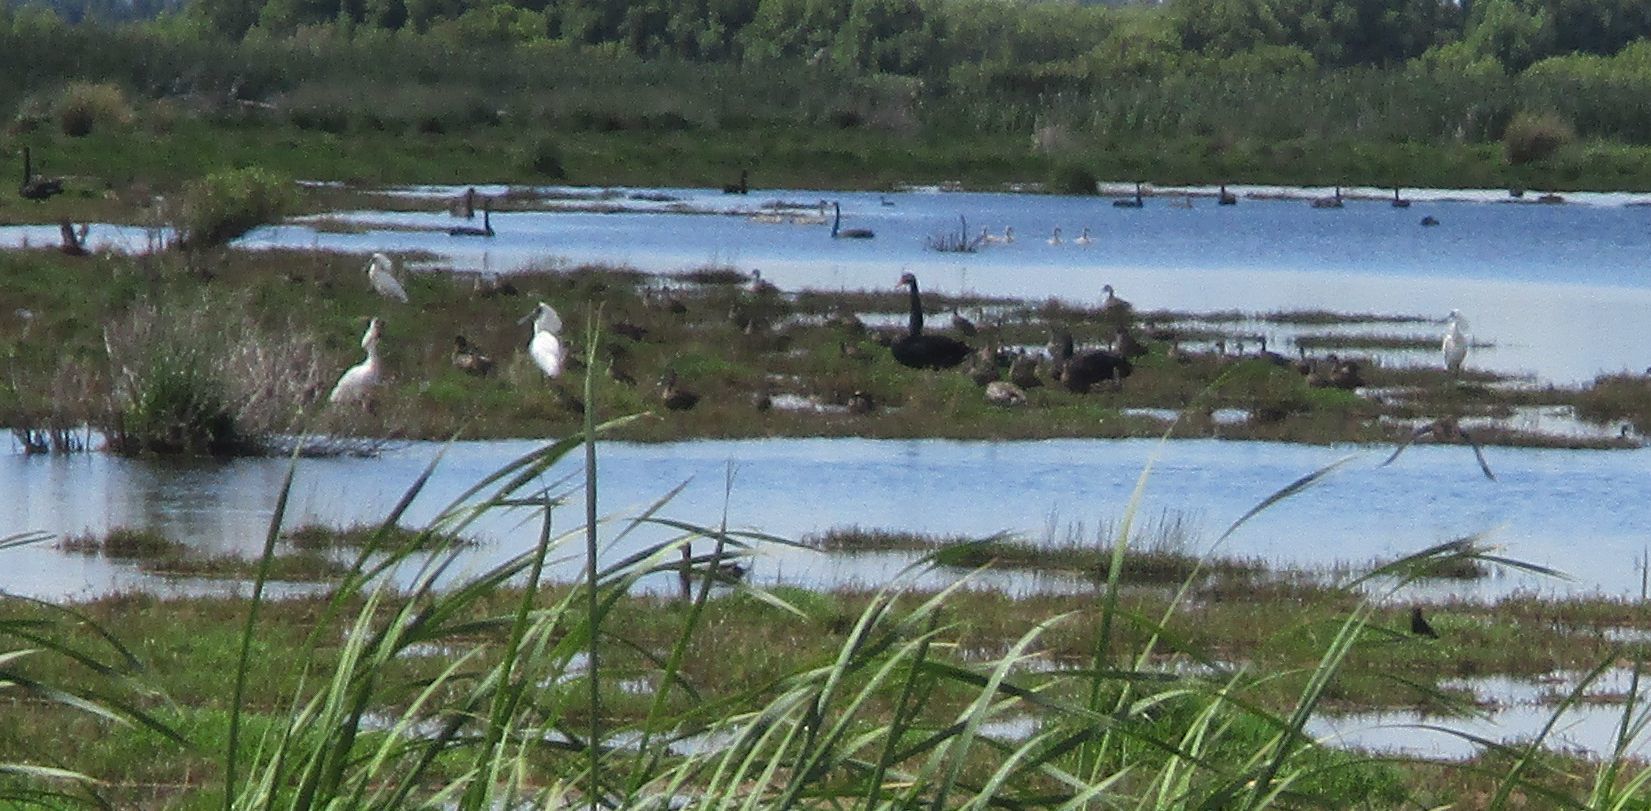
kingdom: Animalia
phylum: Chordata
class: Aves
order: Pelecaniformes
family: Threskiornithidae
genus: Platalea
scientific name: Platalea regia
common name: Royal spoonbill
